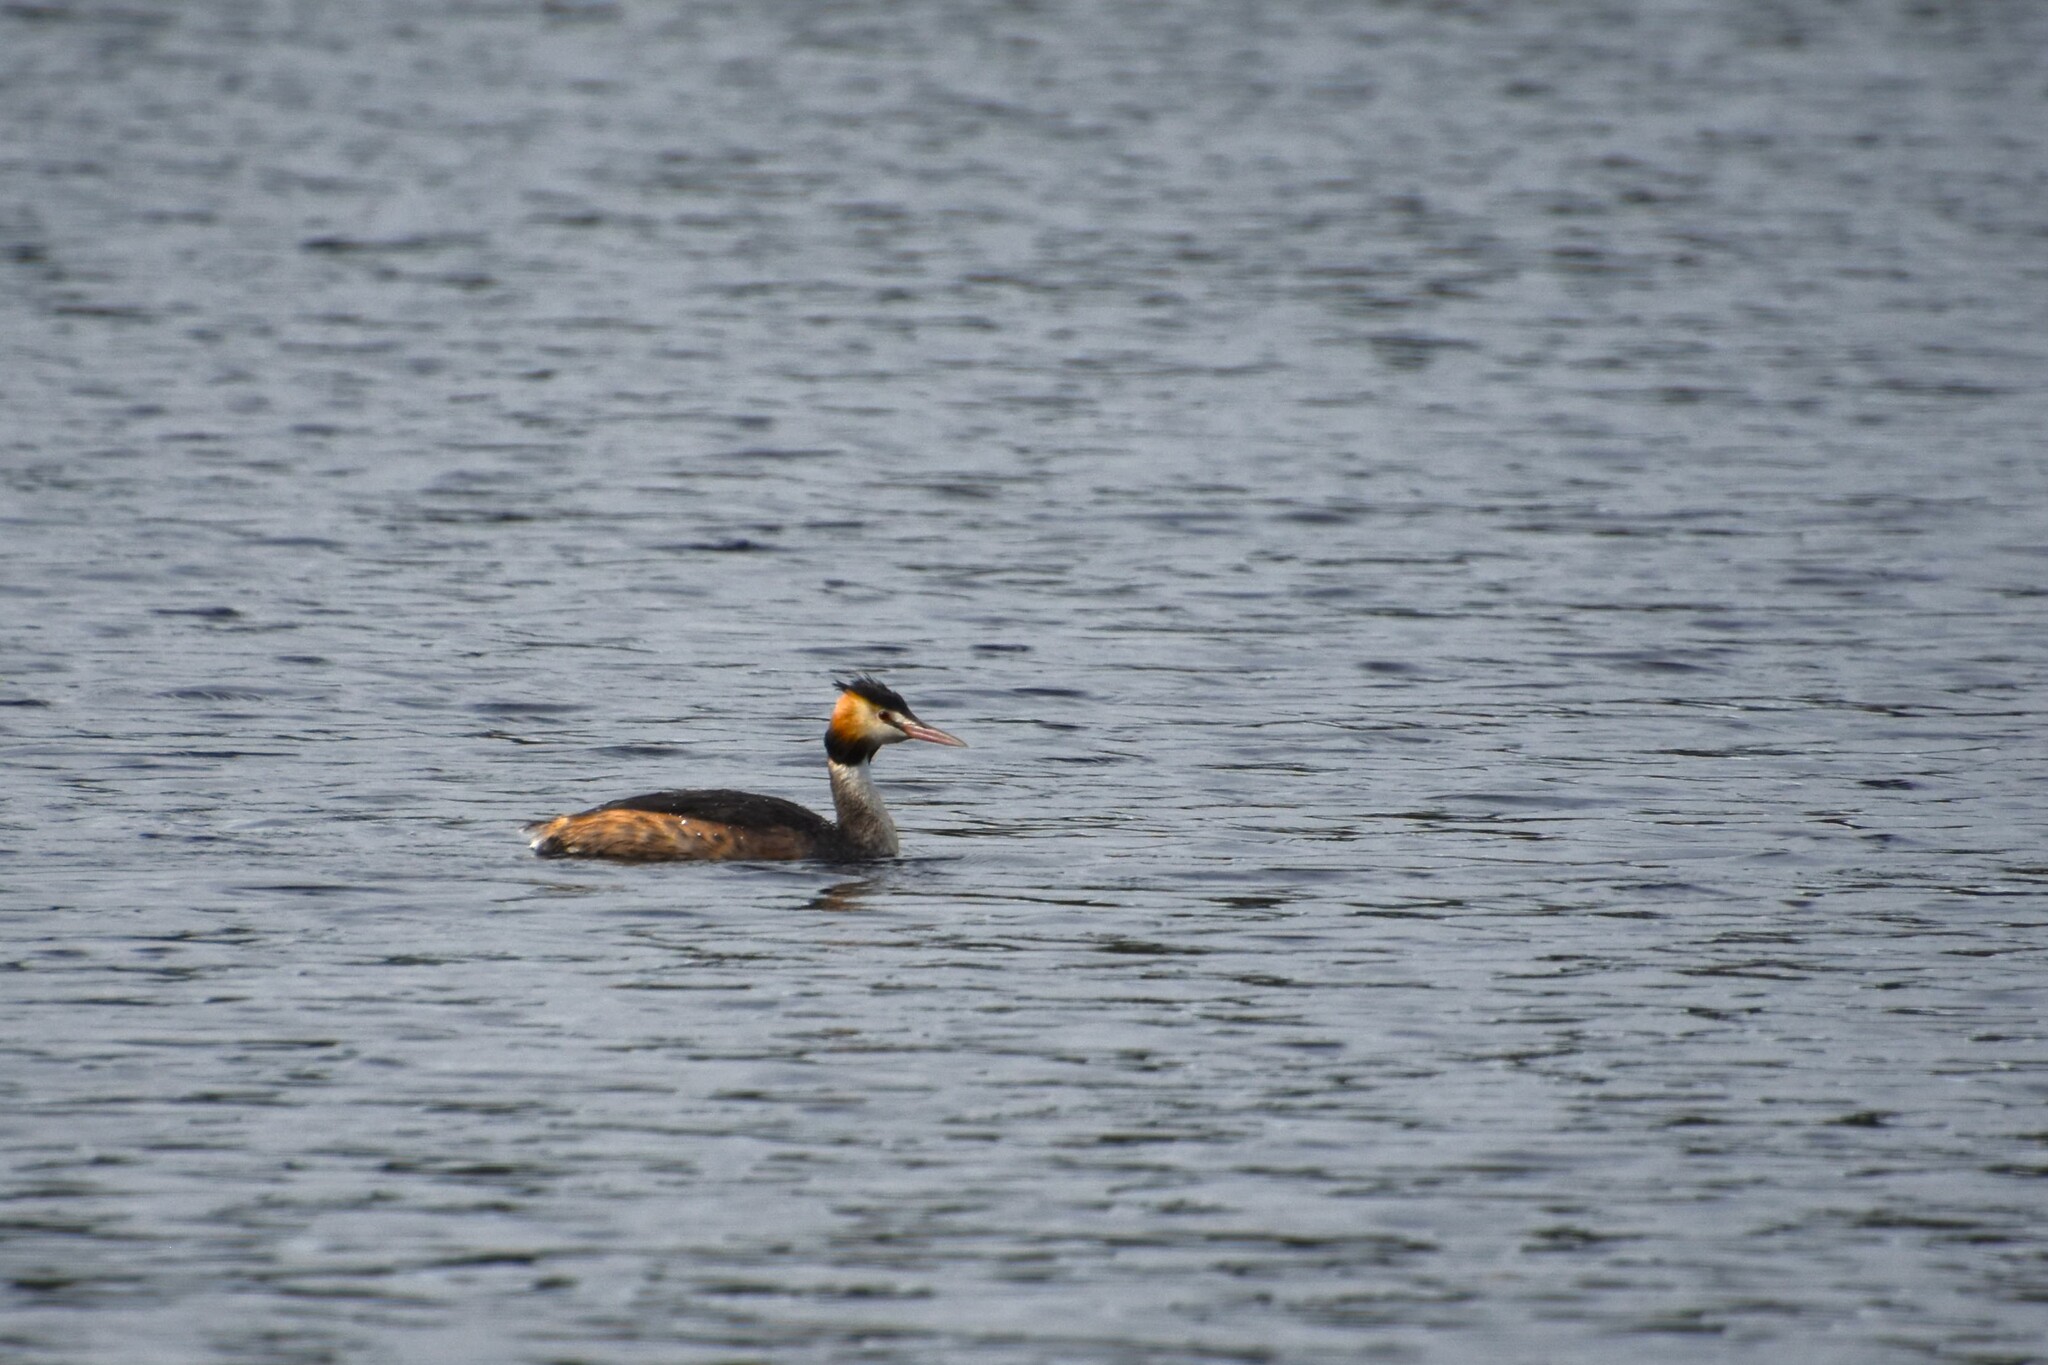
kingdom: Animalia
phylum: Chordata
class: Aves
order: Podicipediformes
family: Podicipedidae
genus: Podiceps
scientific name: Podiceps cristatus
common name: Great crested grebe
